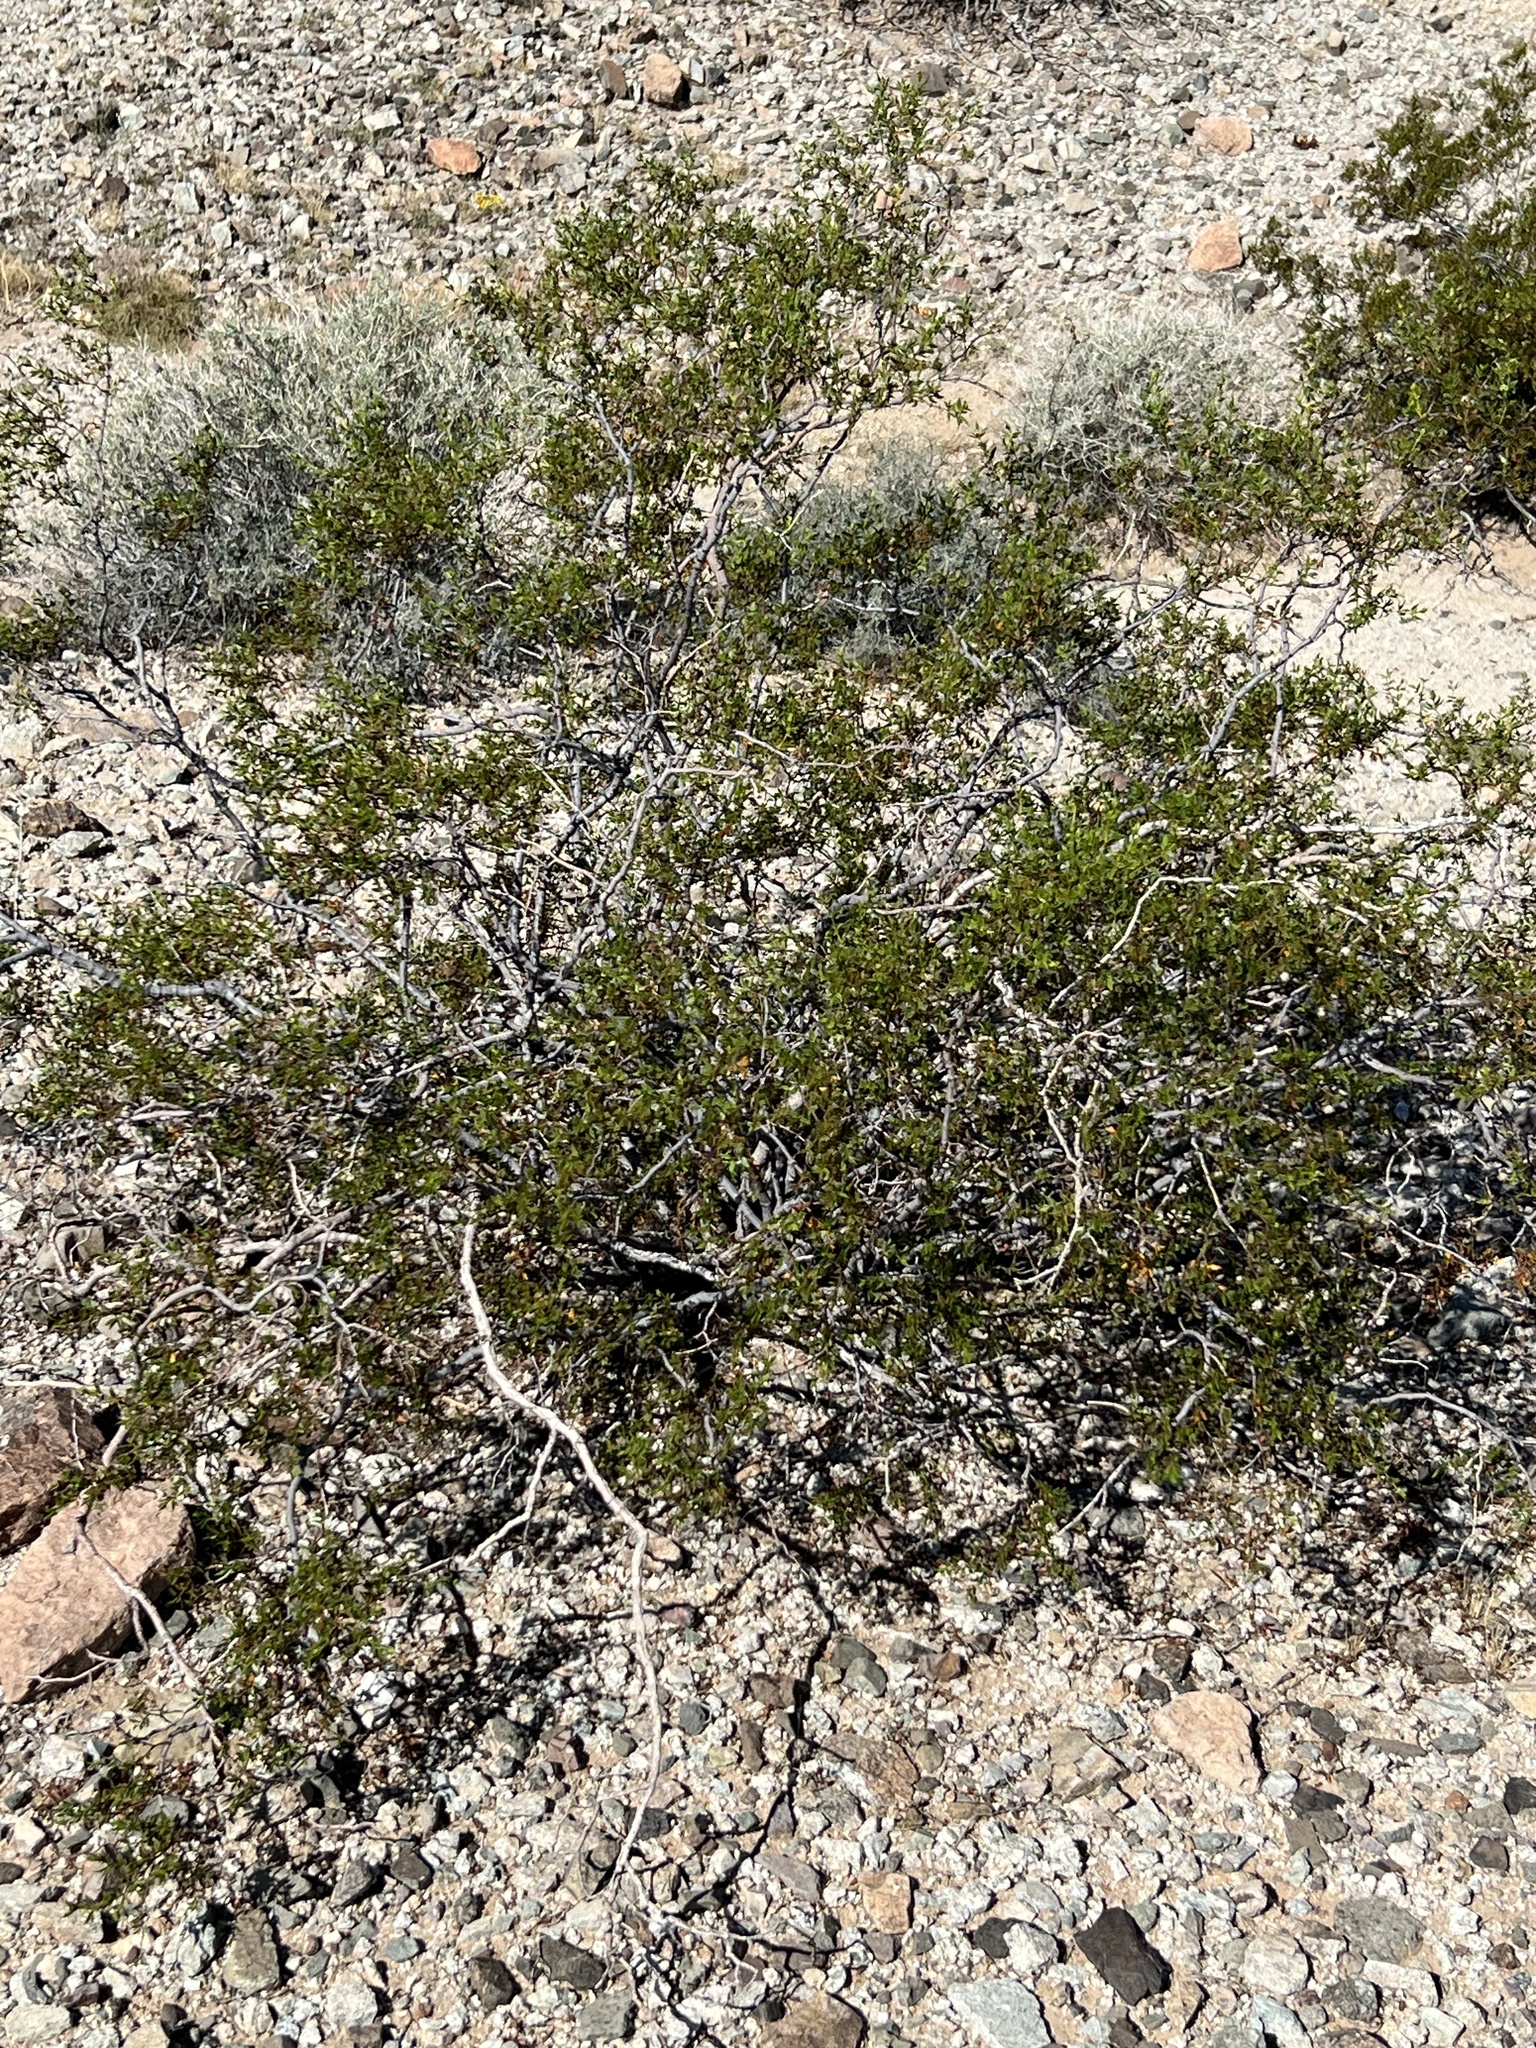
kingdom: Plantae
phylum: Tracheophyta
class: Magnoliopsida
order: Zygophyllales
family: Zygophyllaceae
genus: Larrea
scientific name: Larrea tridentata
